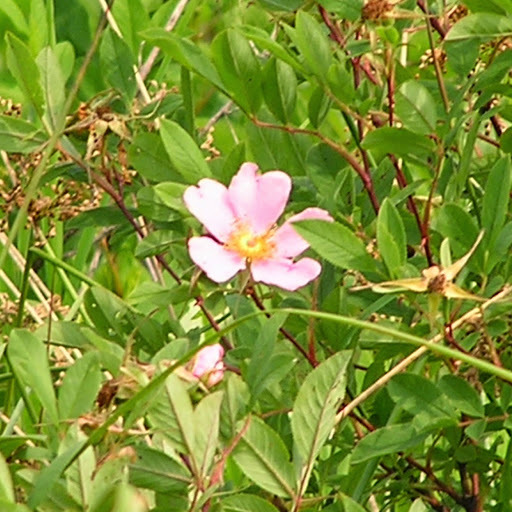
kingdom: Plantae
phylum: Tracheophyta
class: Magnoliopsida
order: Rosales
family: Rosaceae
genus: Rosa
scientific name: Rosa carolina
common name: Pasture rose
